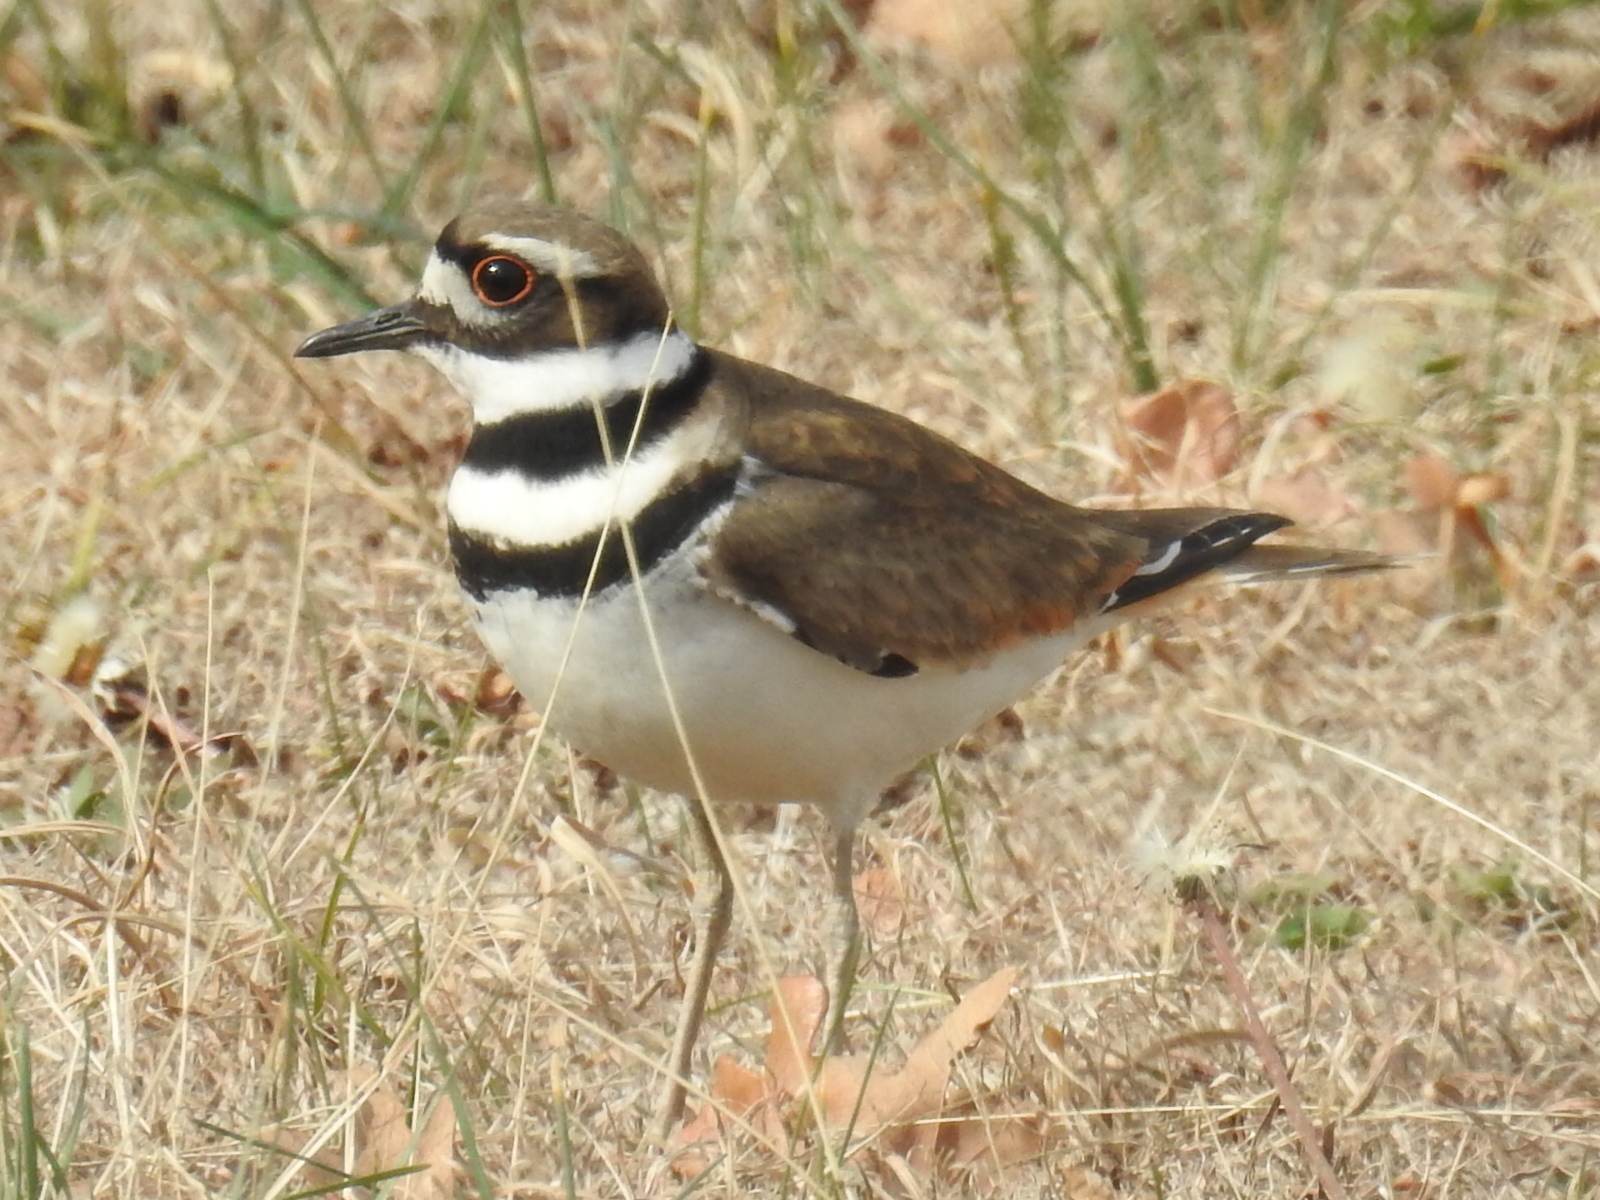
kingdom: Animalia
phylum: Chordata
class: Aves
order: Charadriiformes
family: Charadriidae
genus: Charadrius
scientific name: Charadrius vociferus
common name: Killdeer
